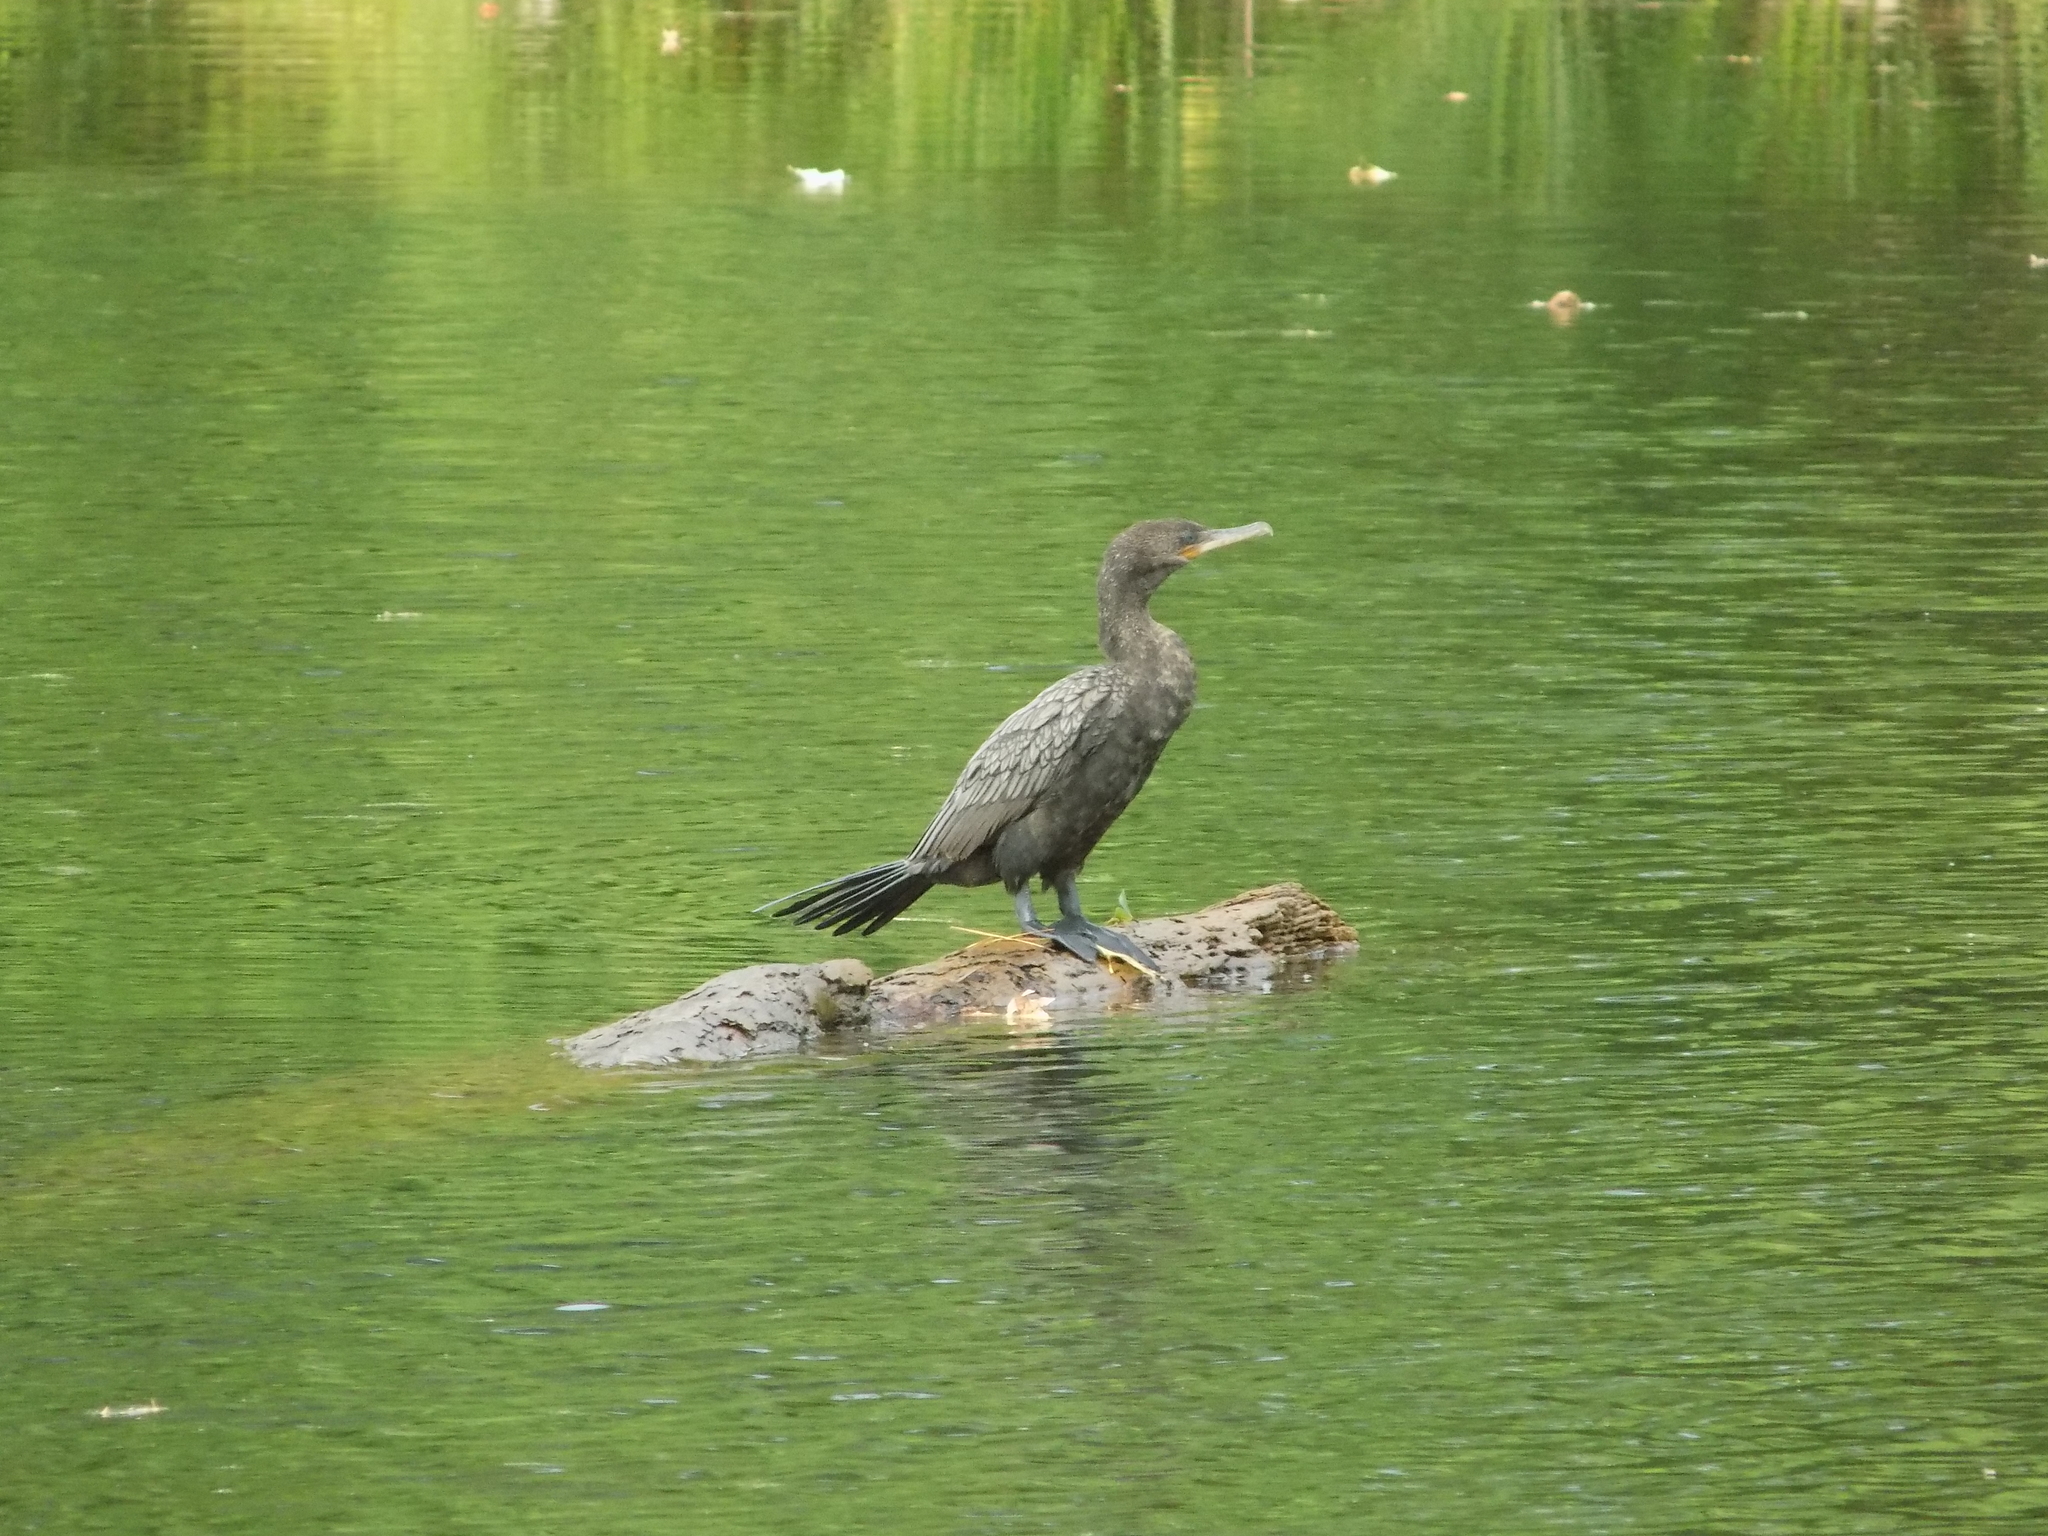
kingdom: Animalia
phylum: Chordata
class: Aves
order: Suliformes
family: Phalacrocoracidae
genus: Phalacrocorax
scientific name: Phalacrocorax brasilianus
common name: Neotropic cormorant
